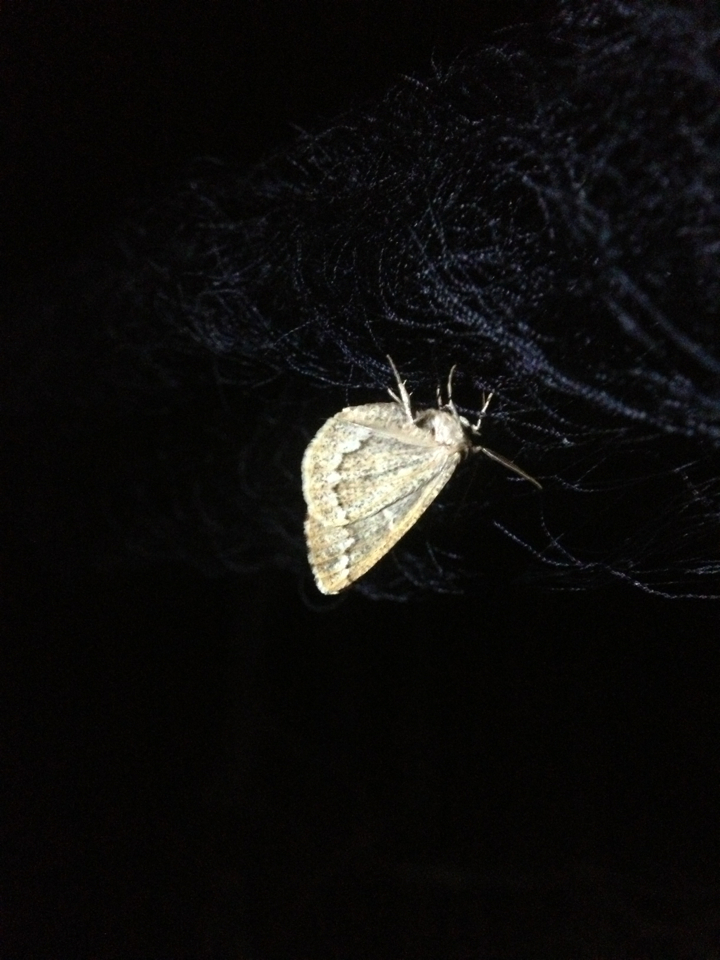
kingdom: Animalia
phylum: Arthropoda
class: Insecta
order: Lepidoptera
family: Geometridae
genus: Caripeta
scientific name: Caripeta divisata
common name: Gray spruce looper
